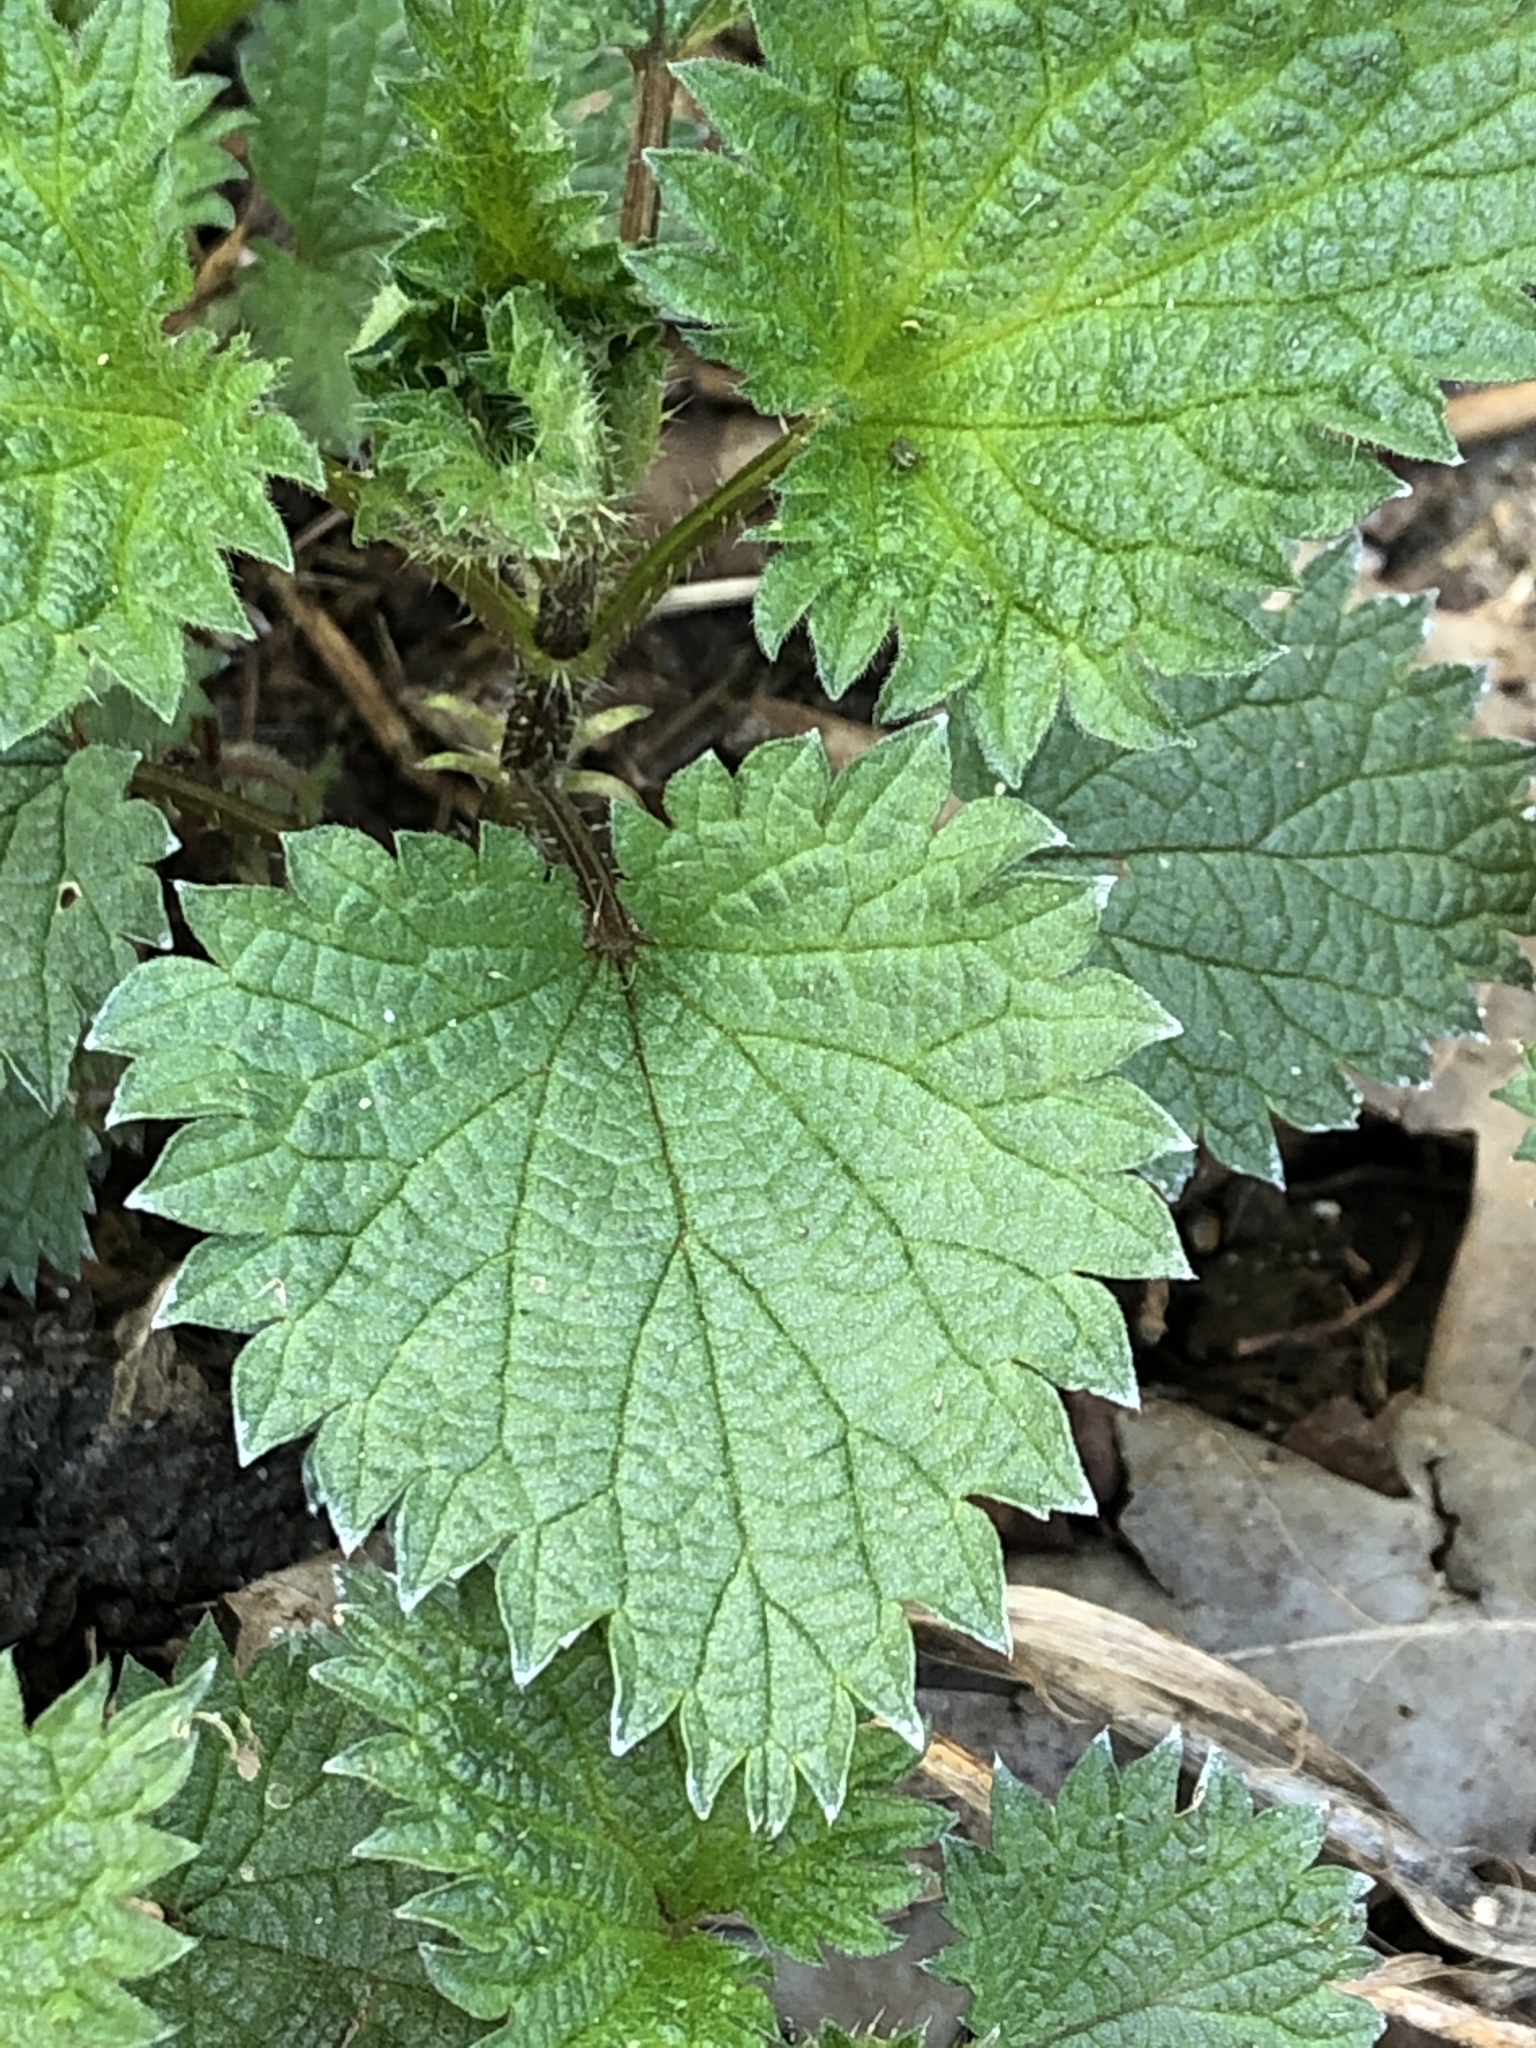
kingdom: Plantae
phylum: Tracheophyta
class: Magnoliopsida
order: Rosales
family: Urticaceae
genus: Urtica
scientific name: Urtica urens
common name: Dwarf nettle
